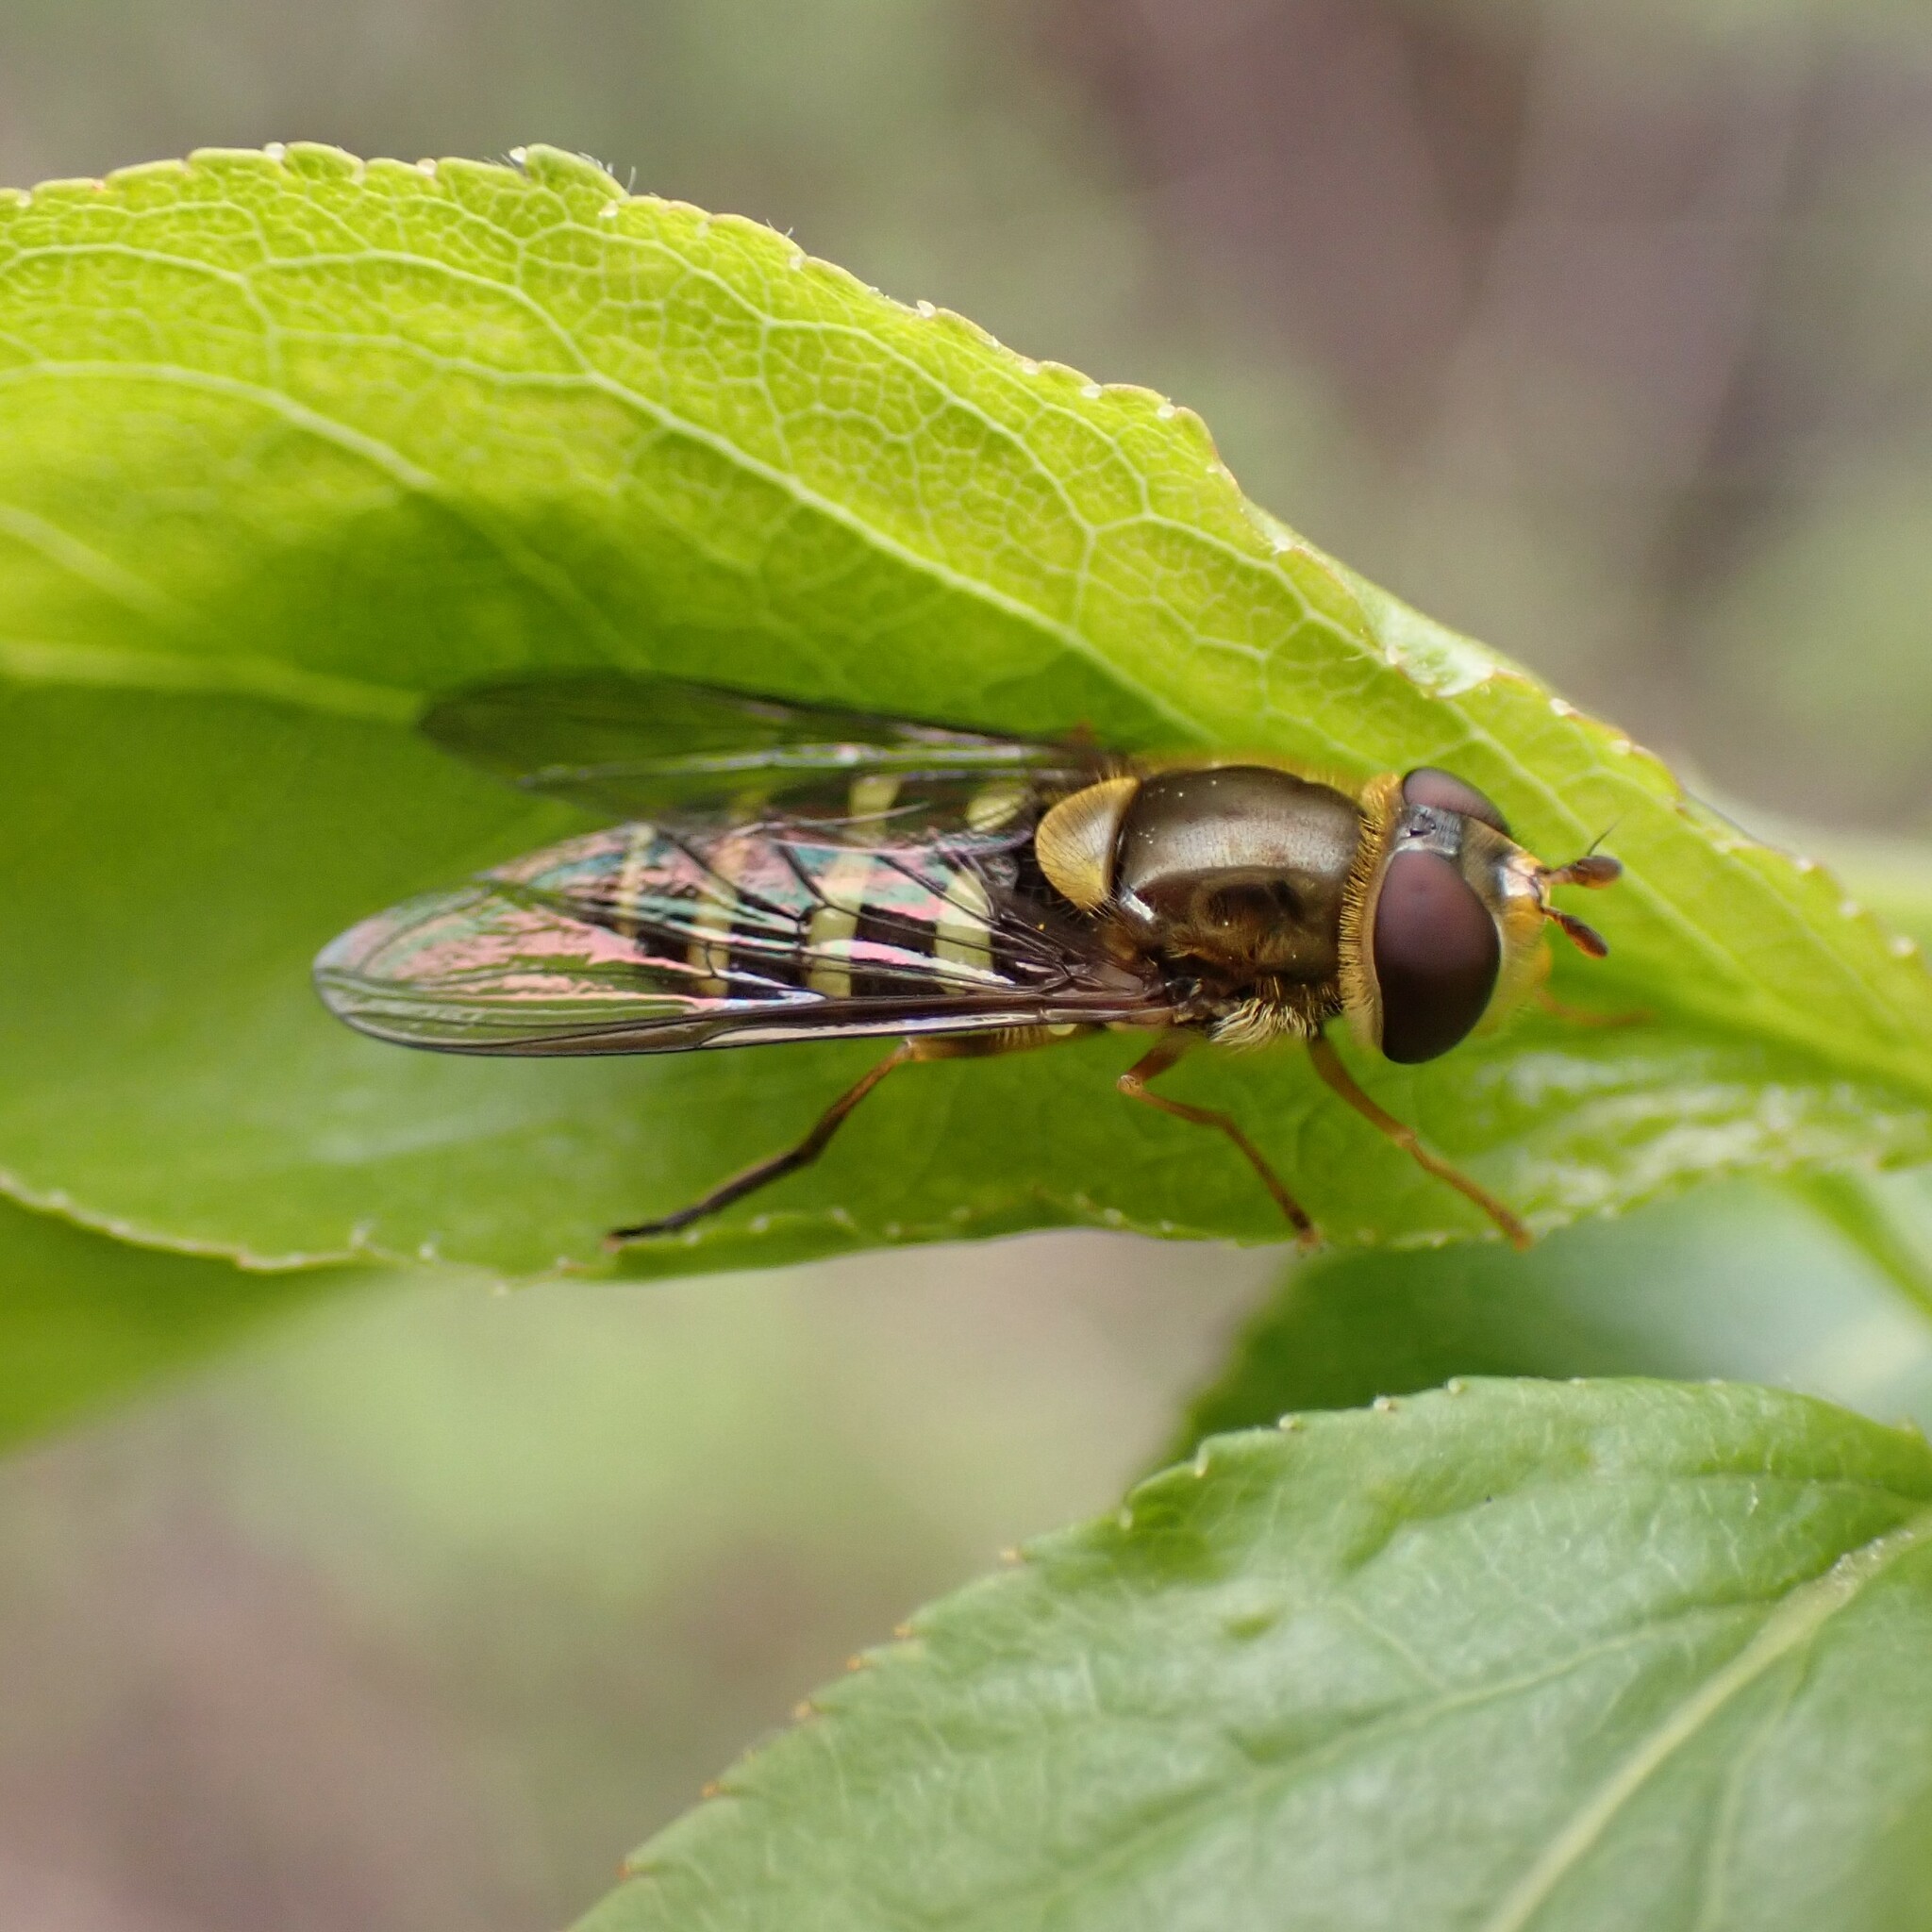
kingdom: Animalia
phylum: Arthropoda
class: Insecta
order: Diptera
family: Syrphidae
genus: Syrphus
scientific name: Syrphus opinator
